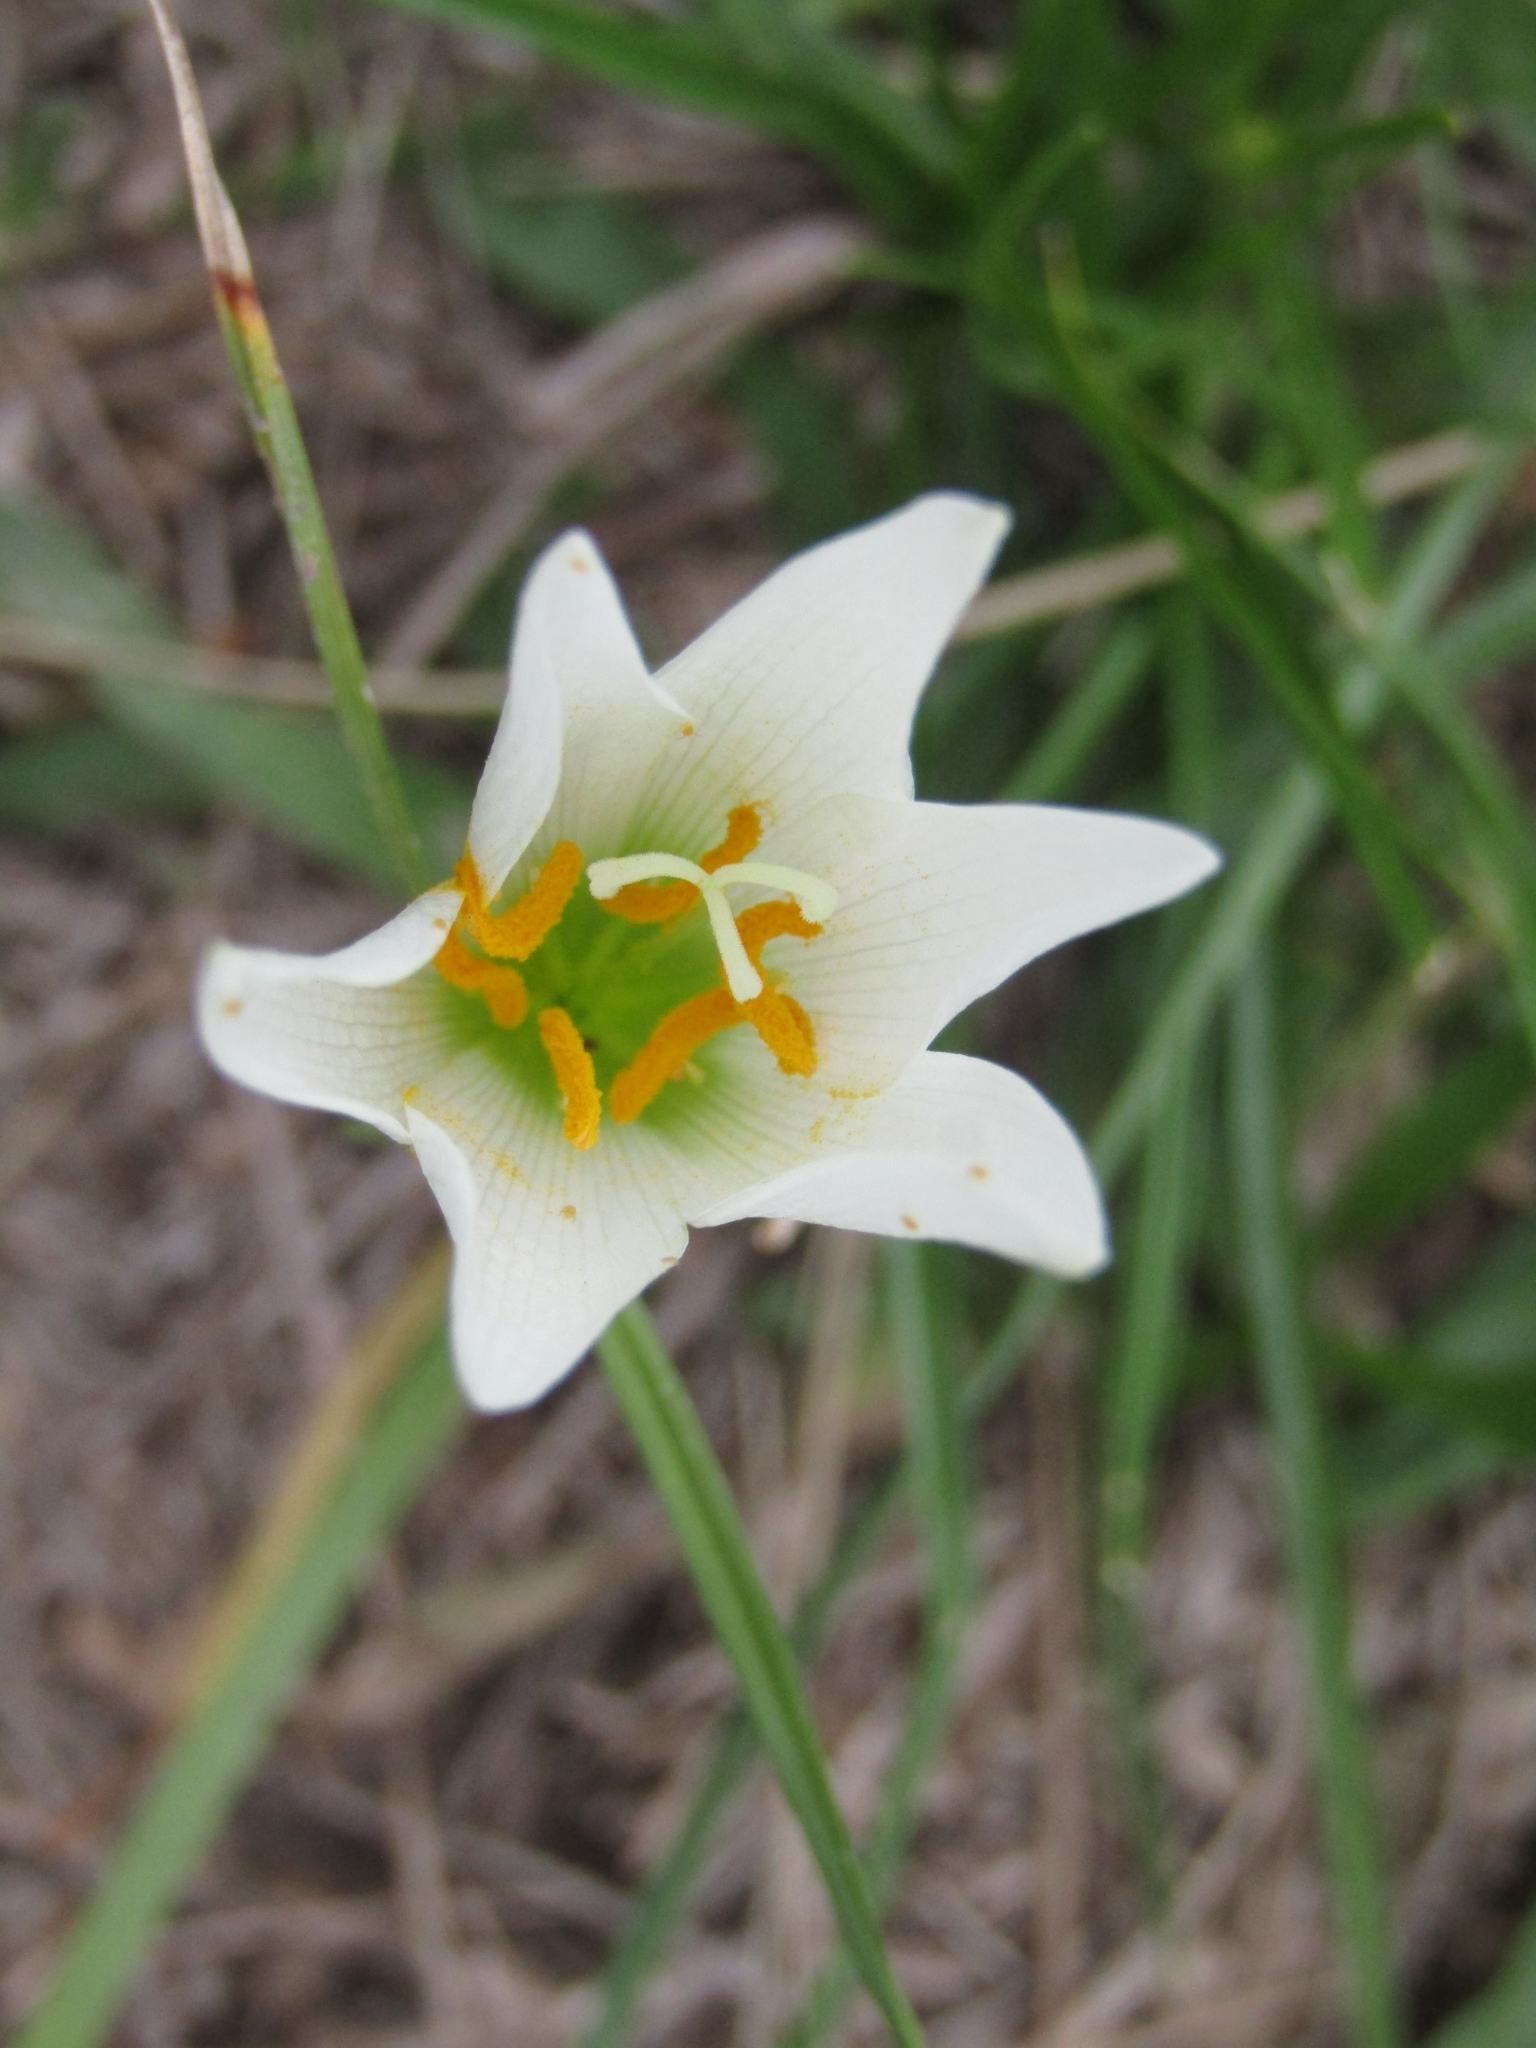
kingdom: Plantae
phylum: Tracheophyta
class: Liliopsida
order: Asparagales
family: Amaryllidaceae
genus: Zephyranthes
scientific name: Zephyranthes candida
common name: Autumn zephyrlily
